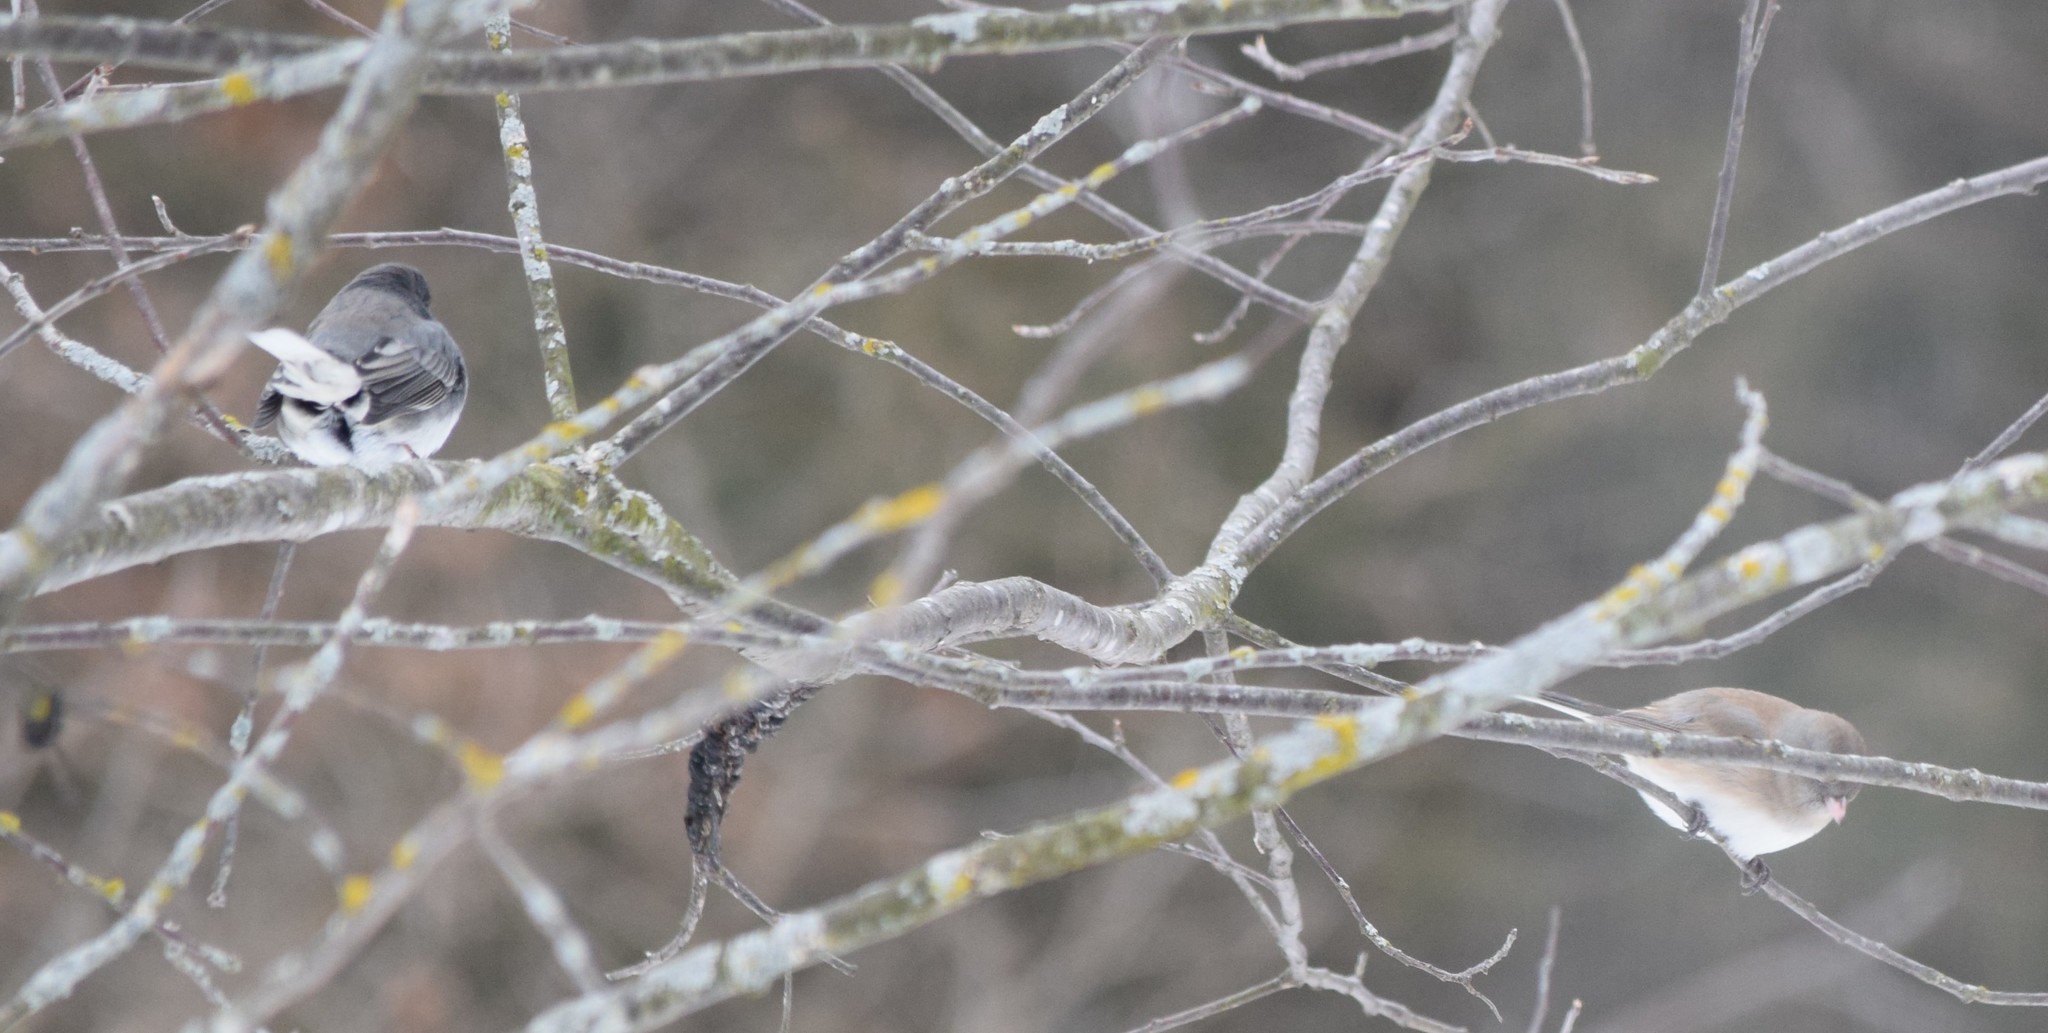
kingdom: Animalia
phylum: Chordata
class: Aves
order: Passeriformes
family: Passerellidae
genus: Junco
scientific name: Junco hyemalis
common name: Dark-eyed junco
